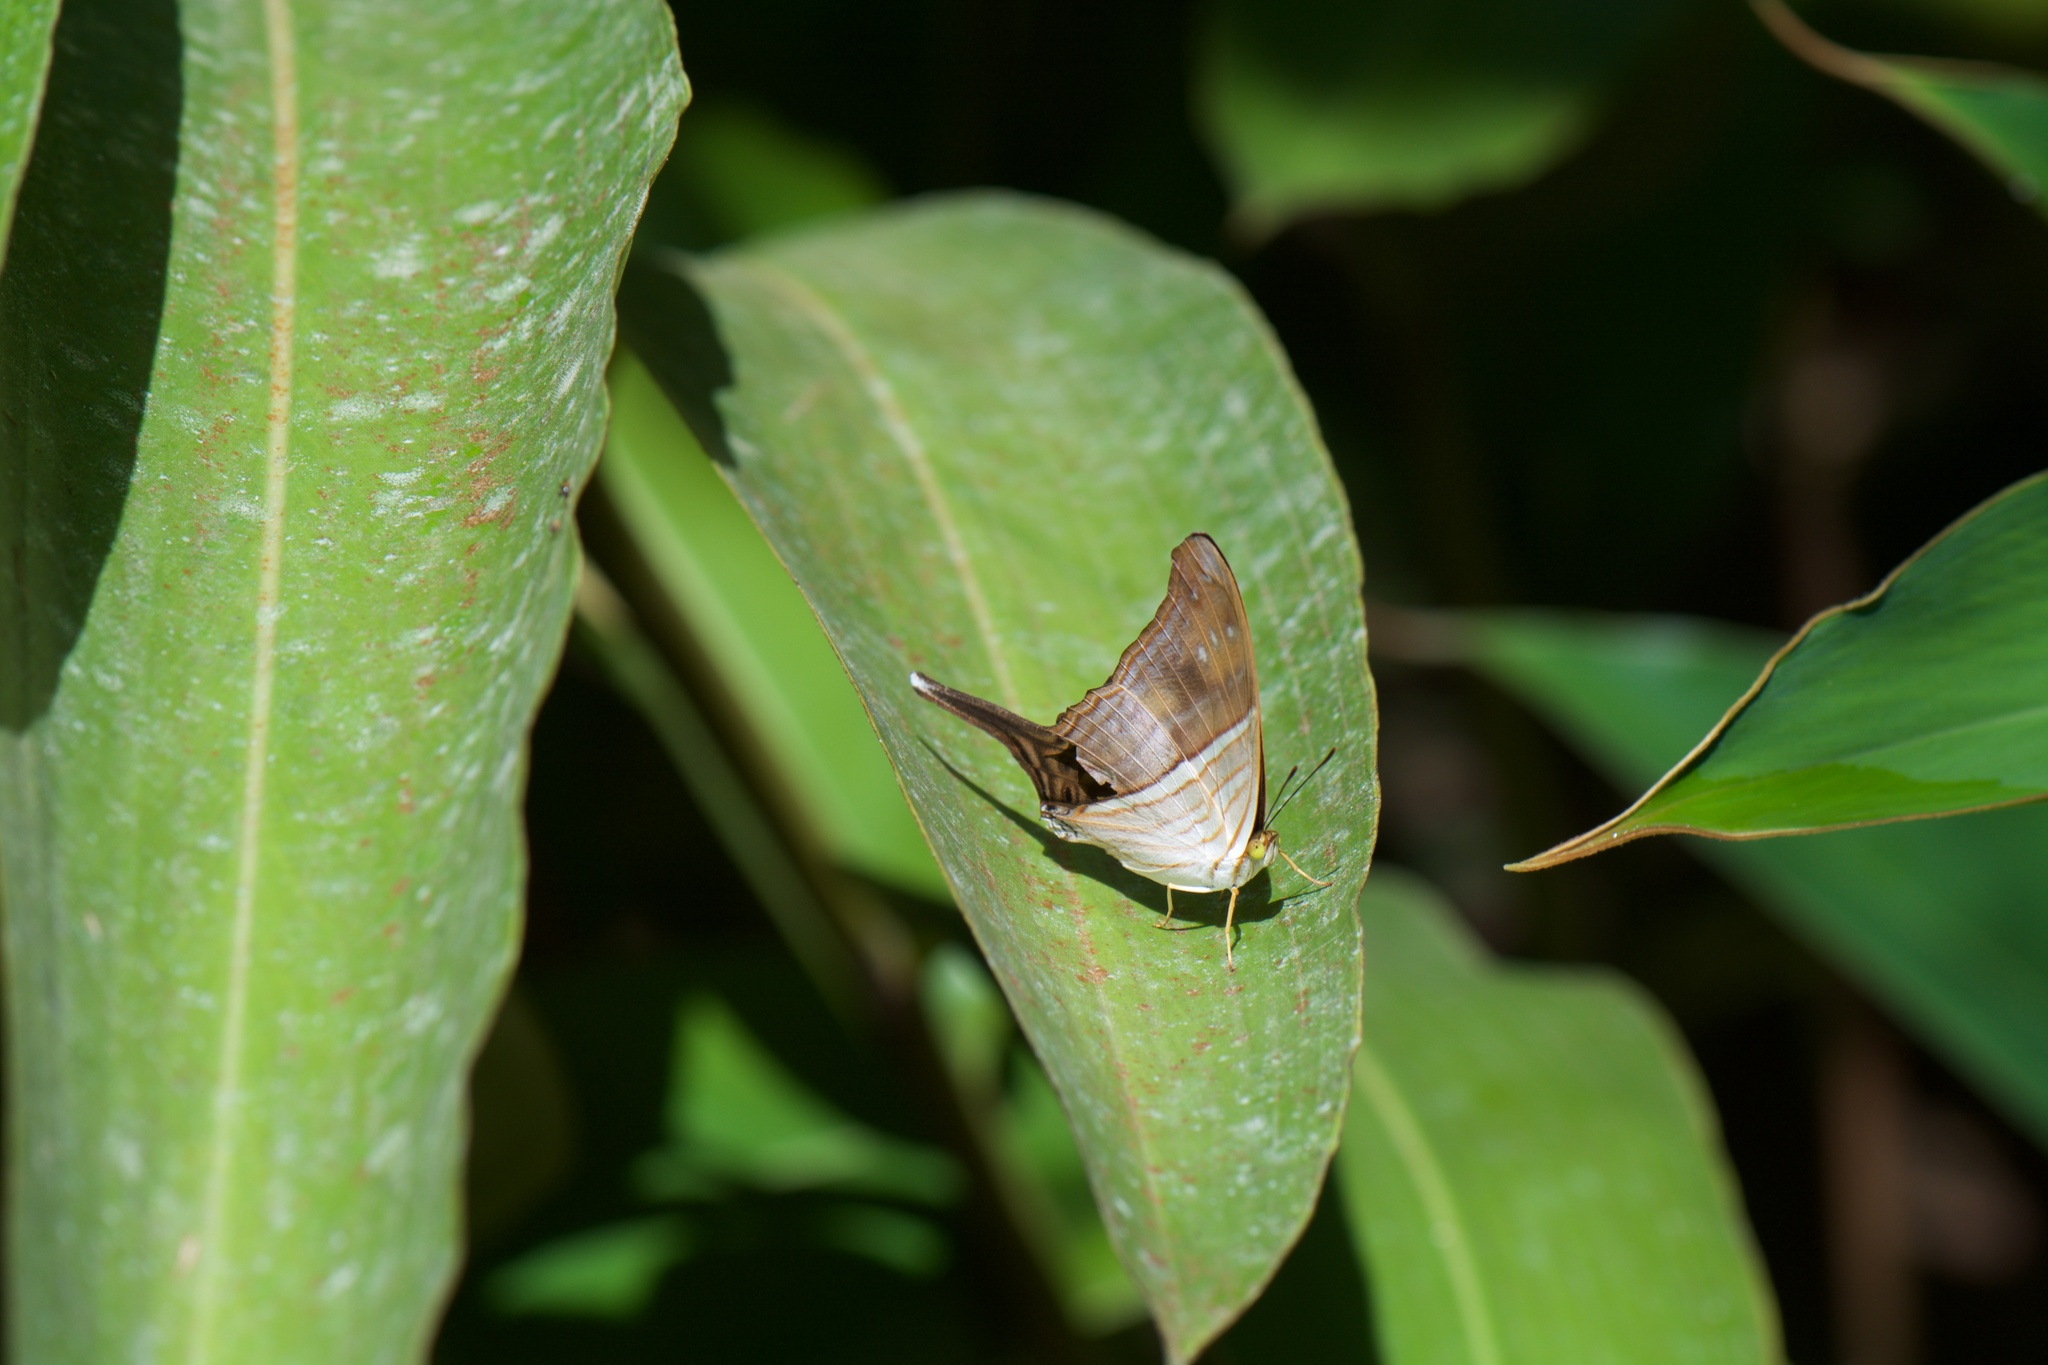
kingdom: Animalia
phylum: Arthropoda
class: Insecta
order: Lepidoptera
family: Nymphalidae
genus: Marpesia
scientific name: Marpesia chiron
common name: Many-banded daggerwing
